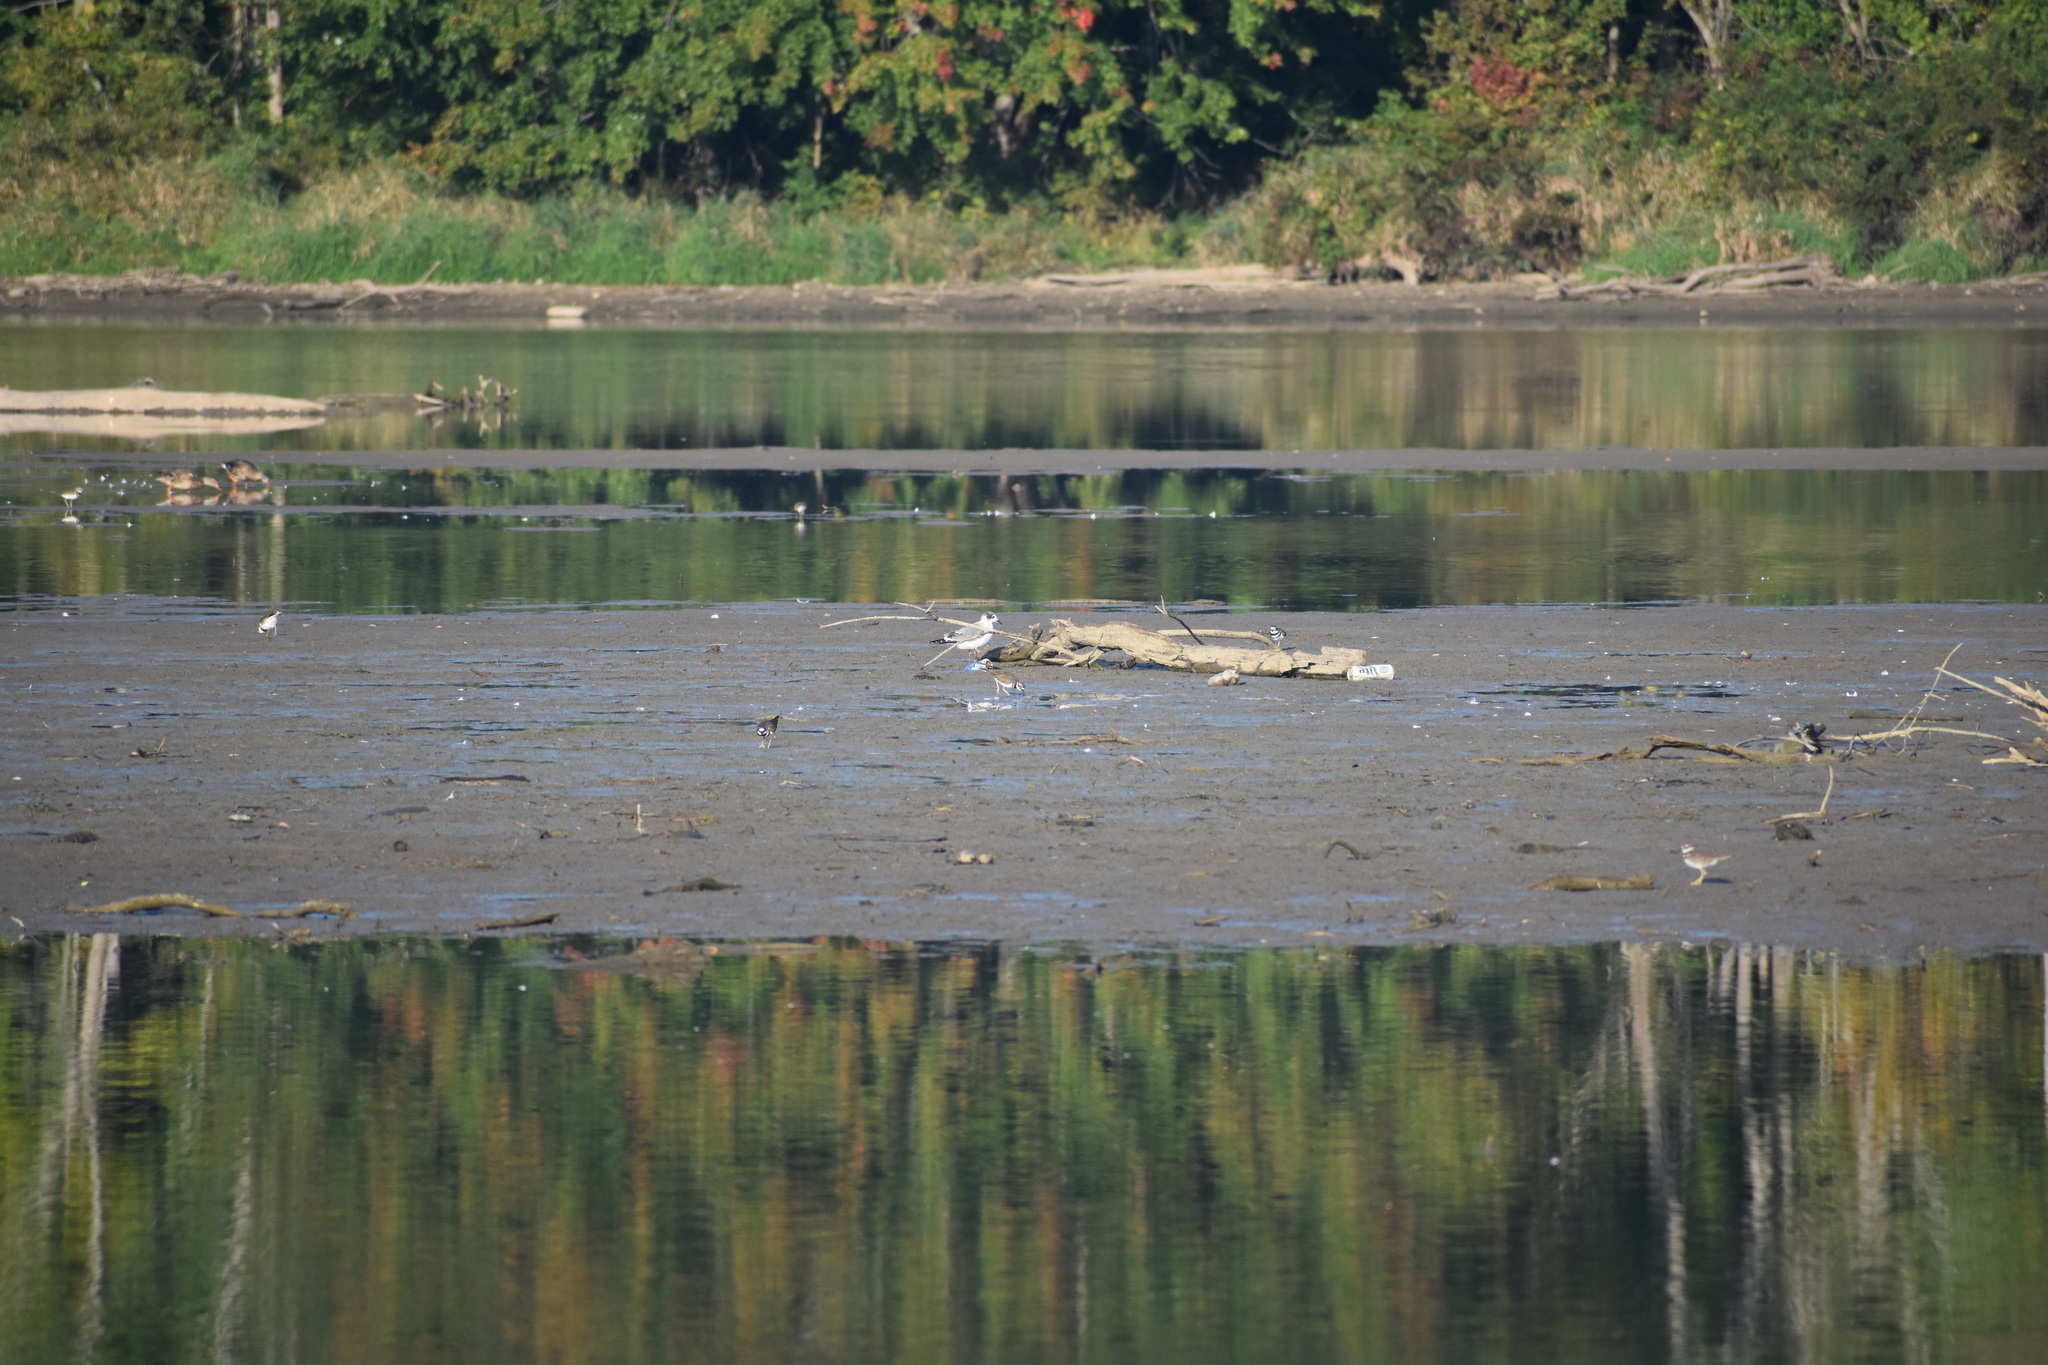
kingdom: Animalia
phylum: Chordata
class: Aves
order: Charadriiformes
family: Laridae
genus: Leucophaeus
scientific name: Leucophaeus pipixcan
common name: Franklin's gull
